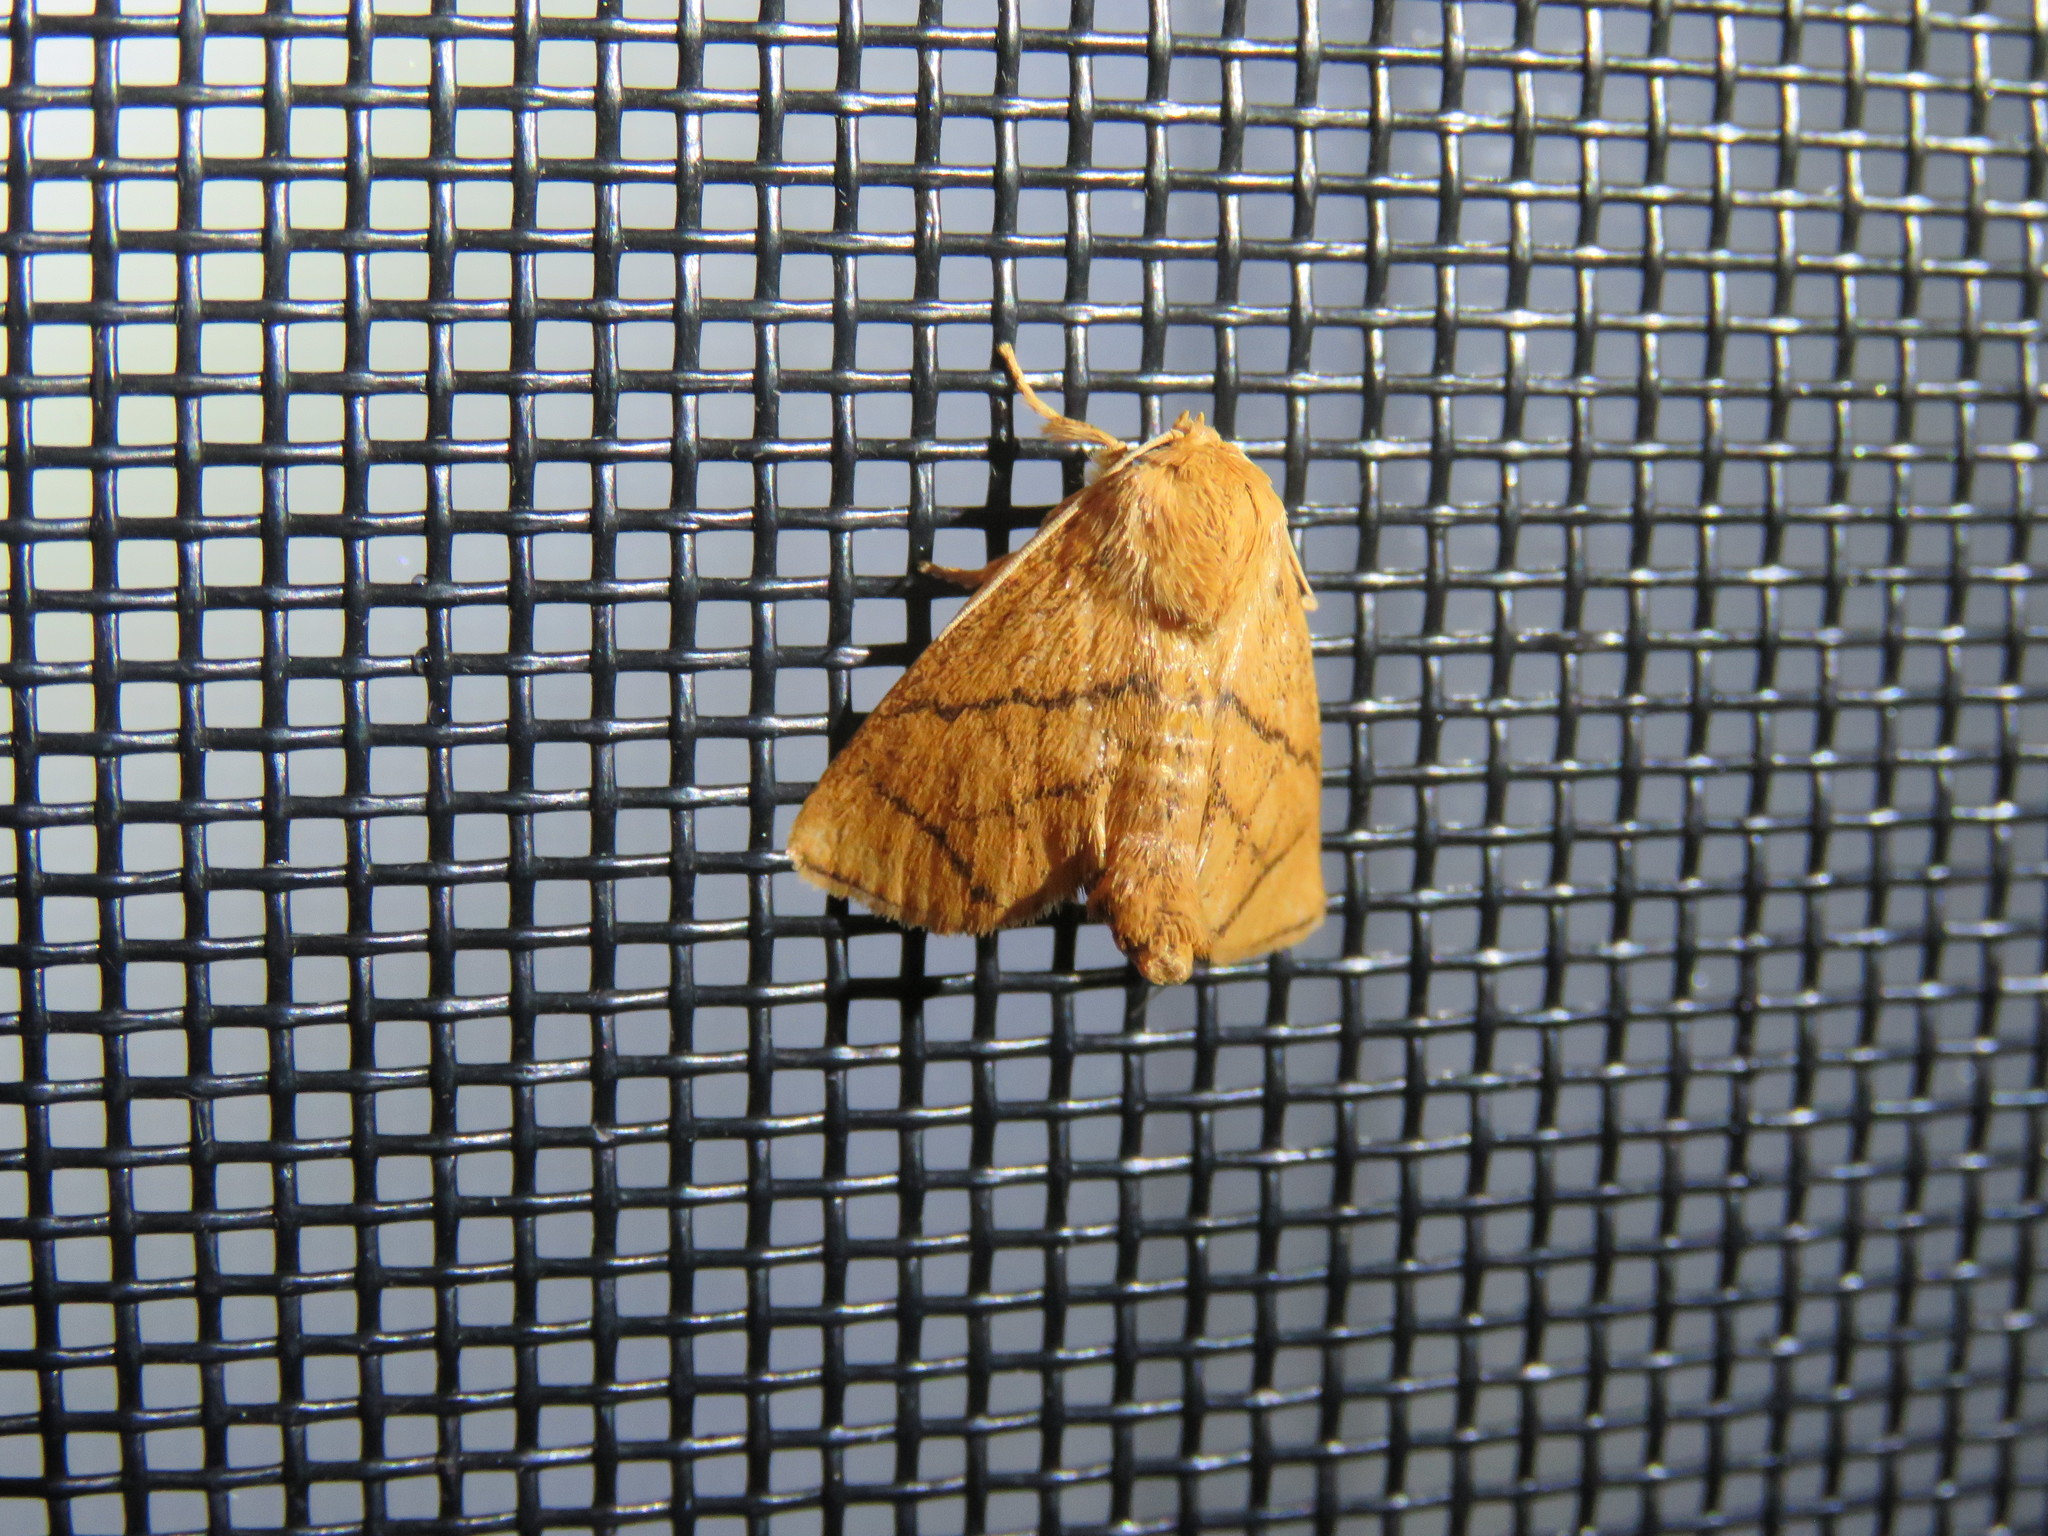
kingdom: Animalia
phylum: Arthropoda
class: Insecta
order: Lepidoptera
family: Limacodidae
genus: Apoda
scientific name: Apoda y-inversa
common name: Yellow-collared slug moth
